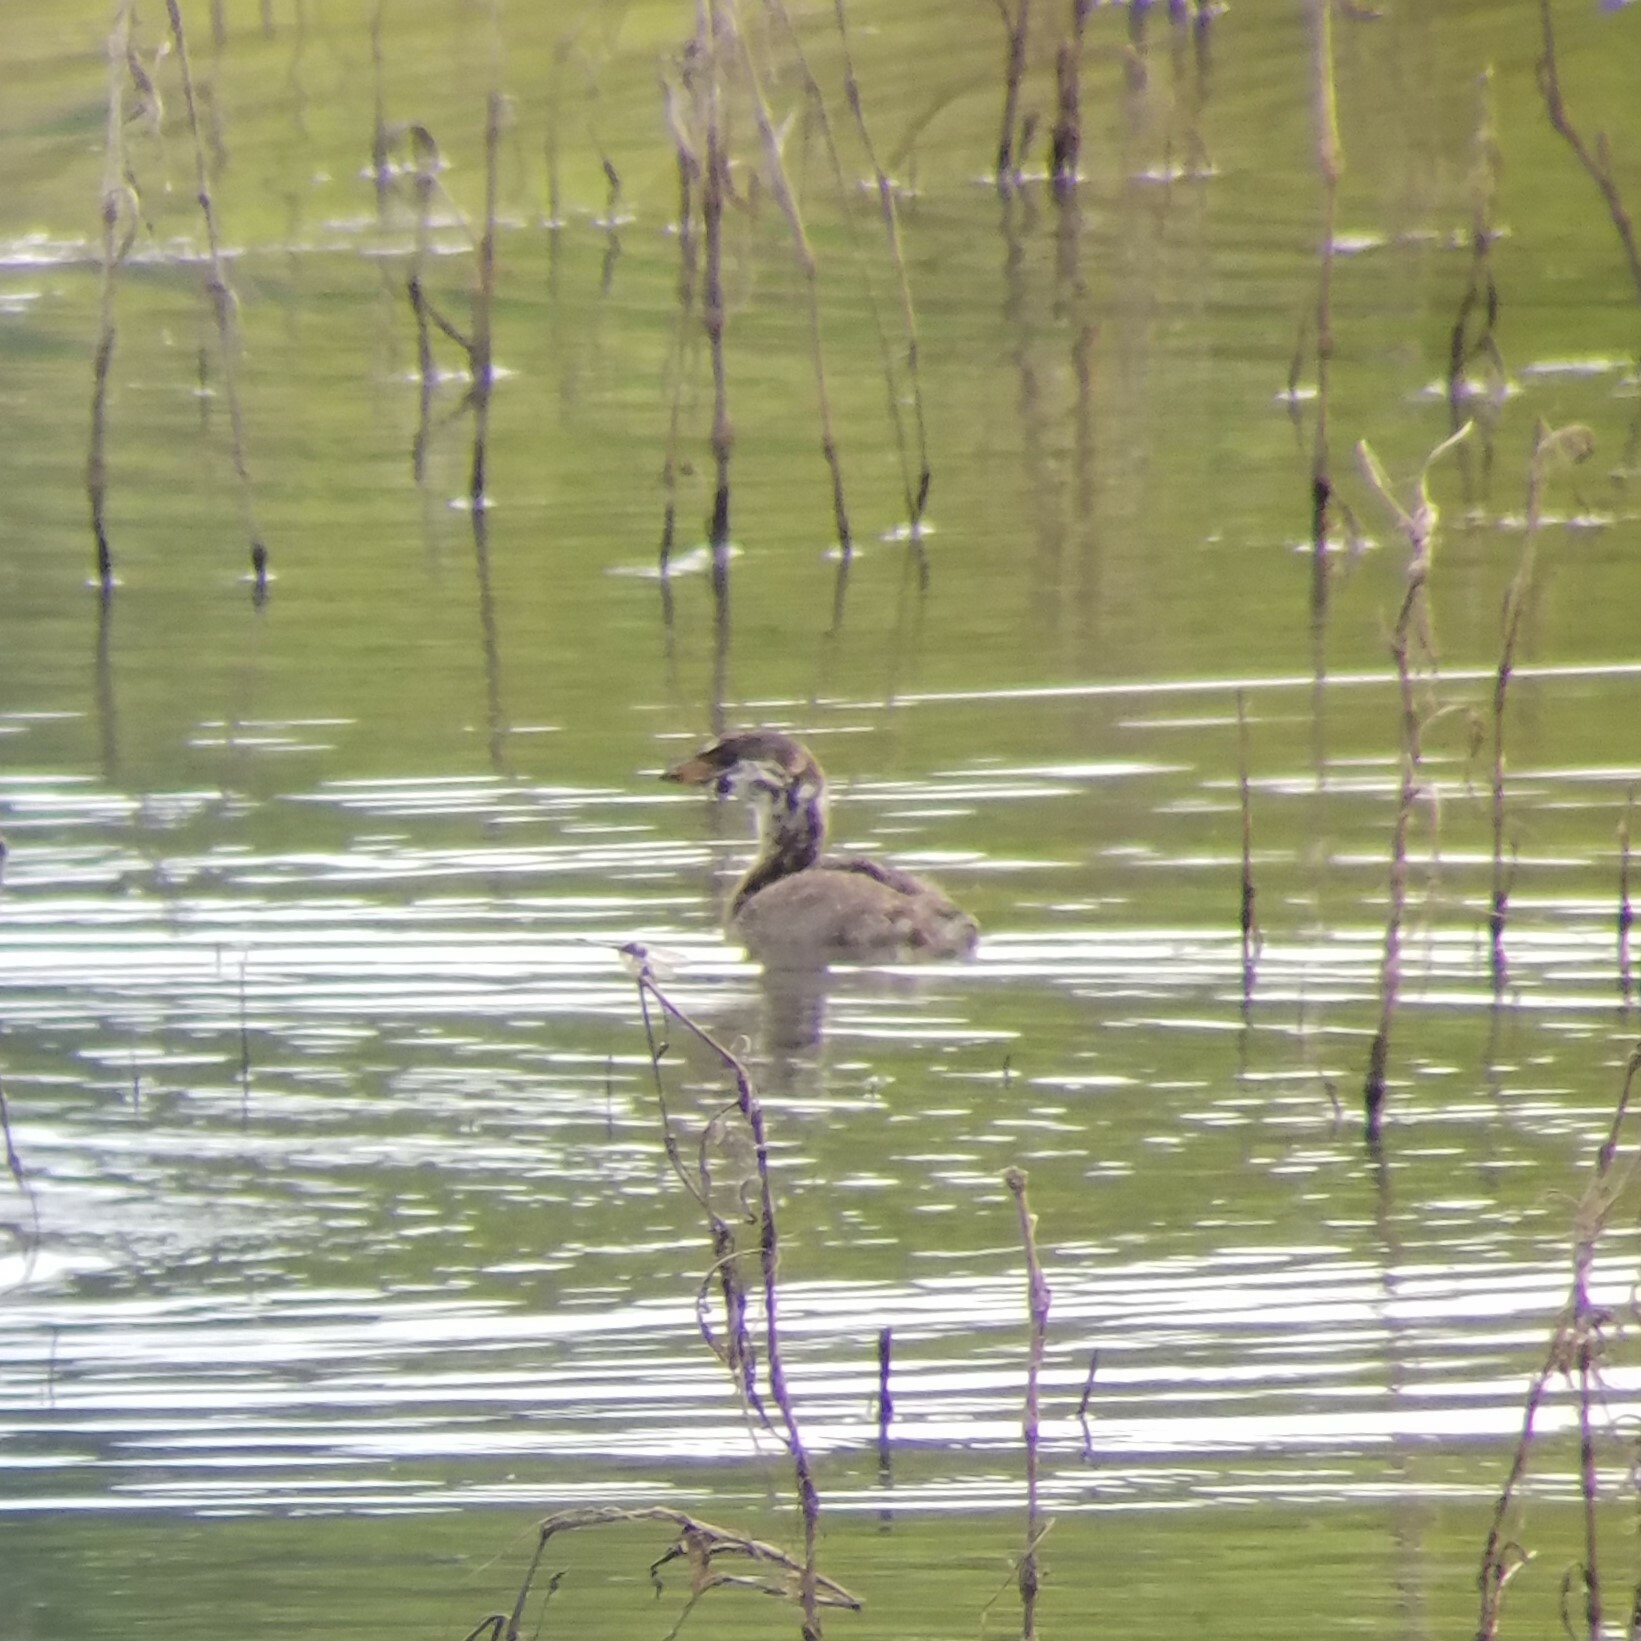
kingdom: Animalia
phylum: Chordata
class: Aves
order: Podicipediformes
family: Podicipedidae
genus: Podilymbus
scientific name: Podilymbus podiceps
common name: Pied-billed grebe
